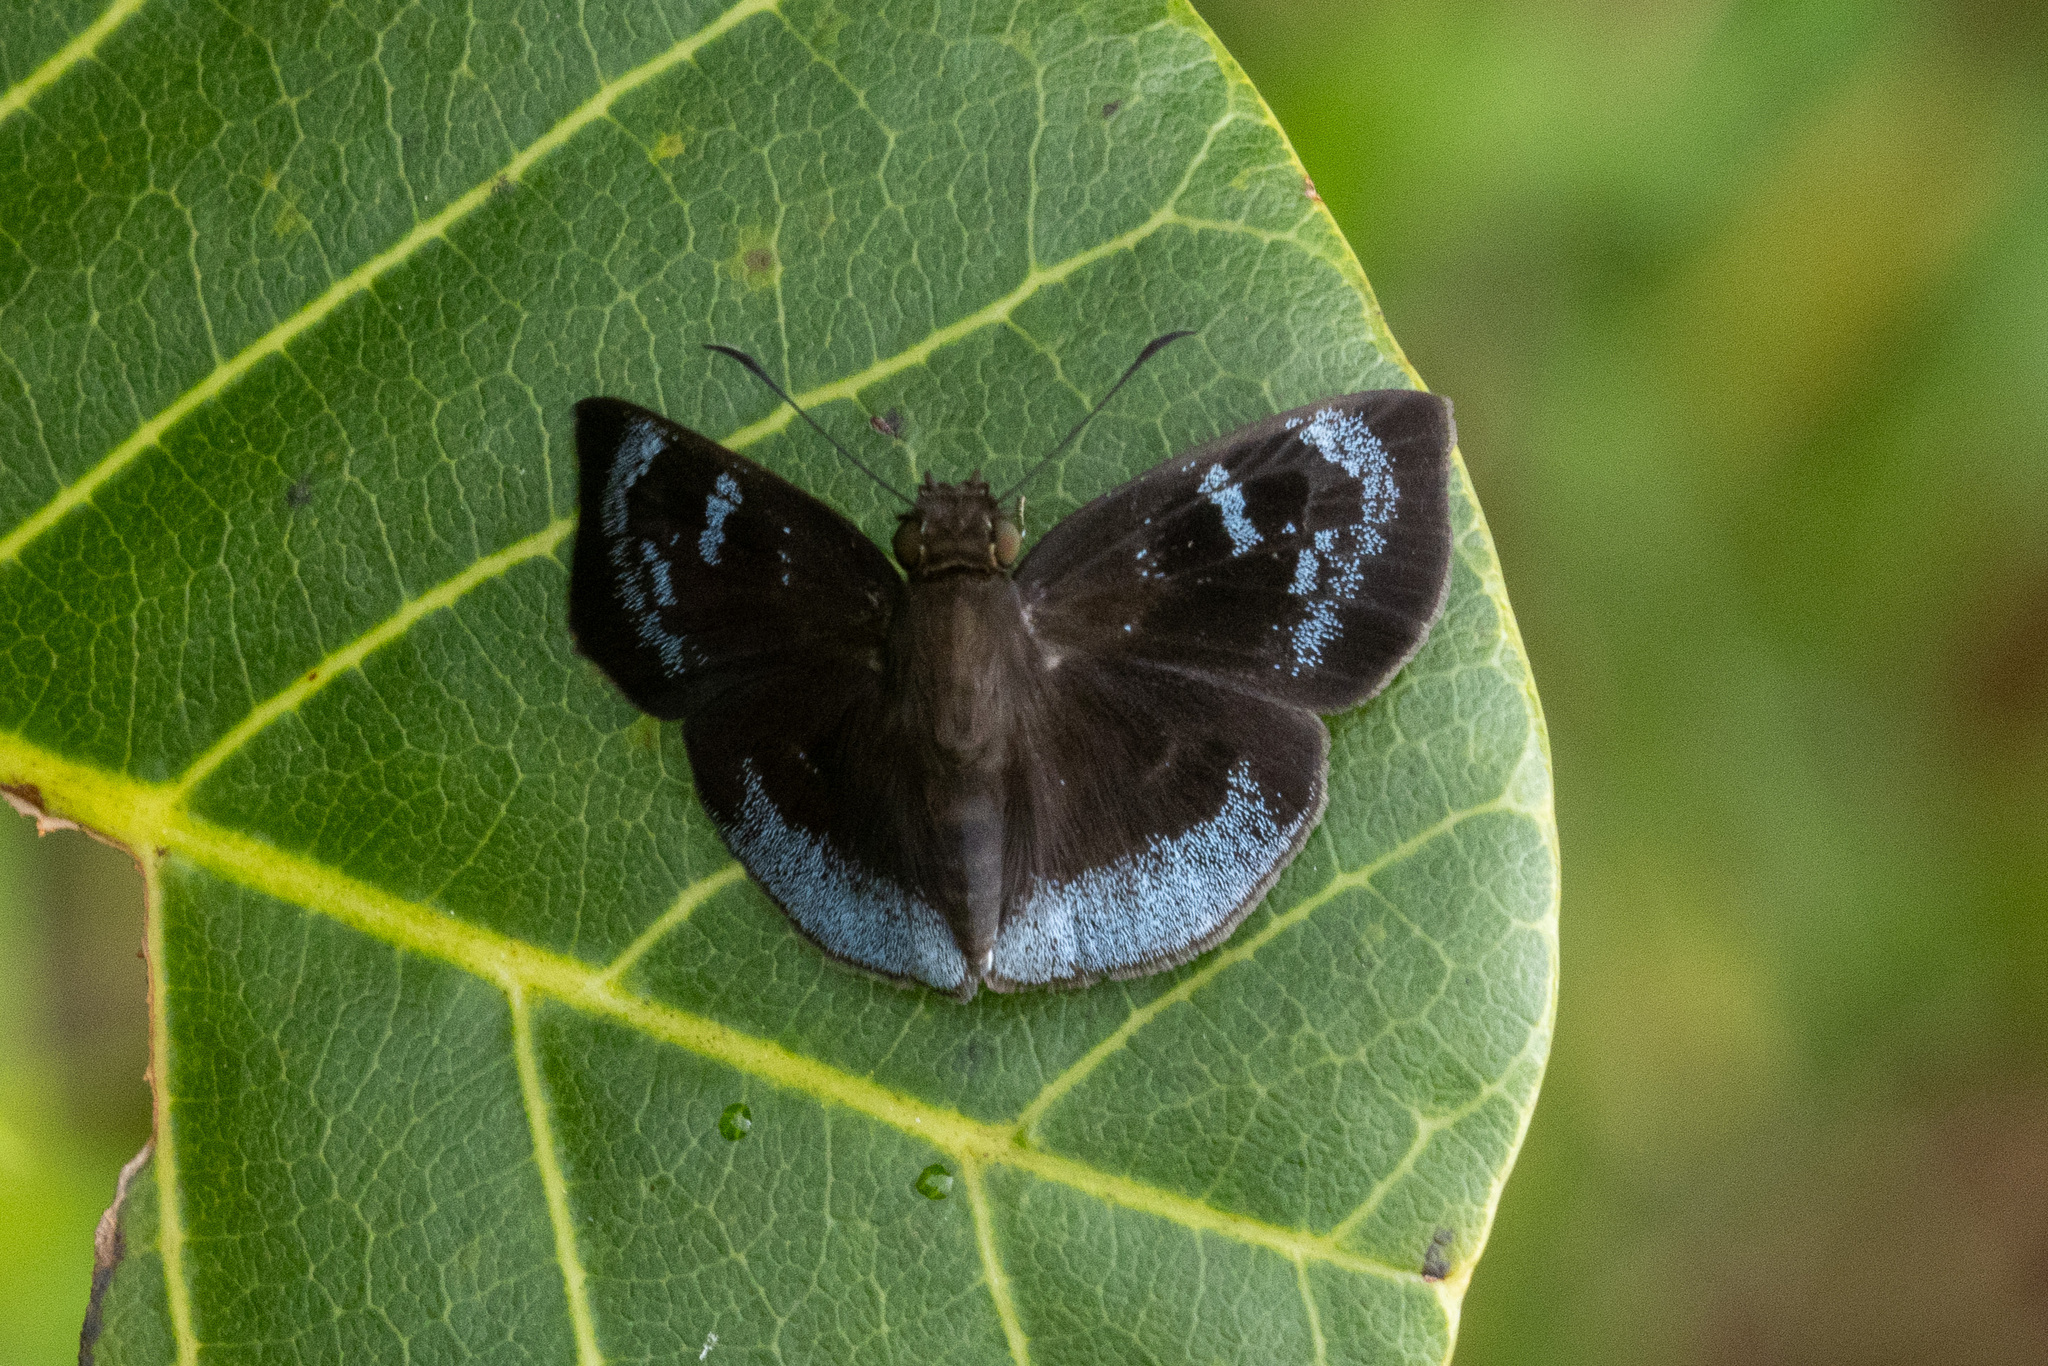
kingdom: Animalia
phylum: Arthropoda
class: Insecta
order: Lepidoptera
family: Hesperiidae
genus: Pythonides
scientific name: Pythonides limaea
